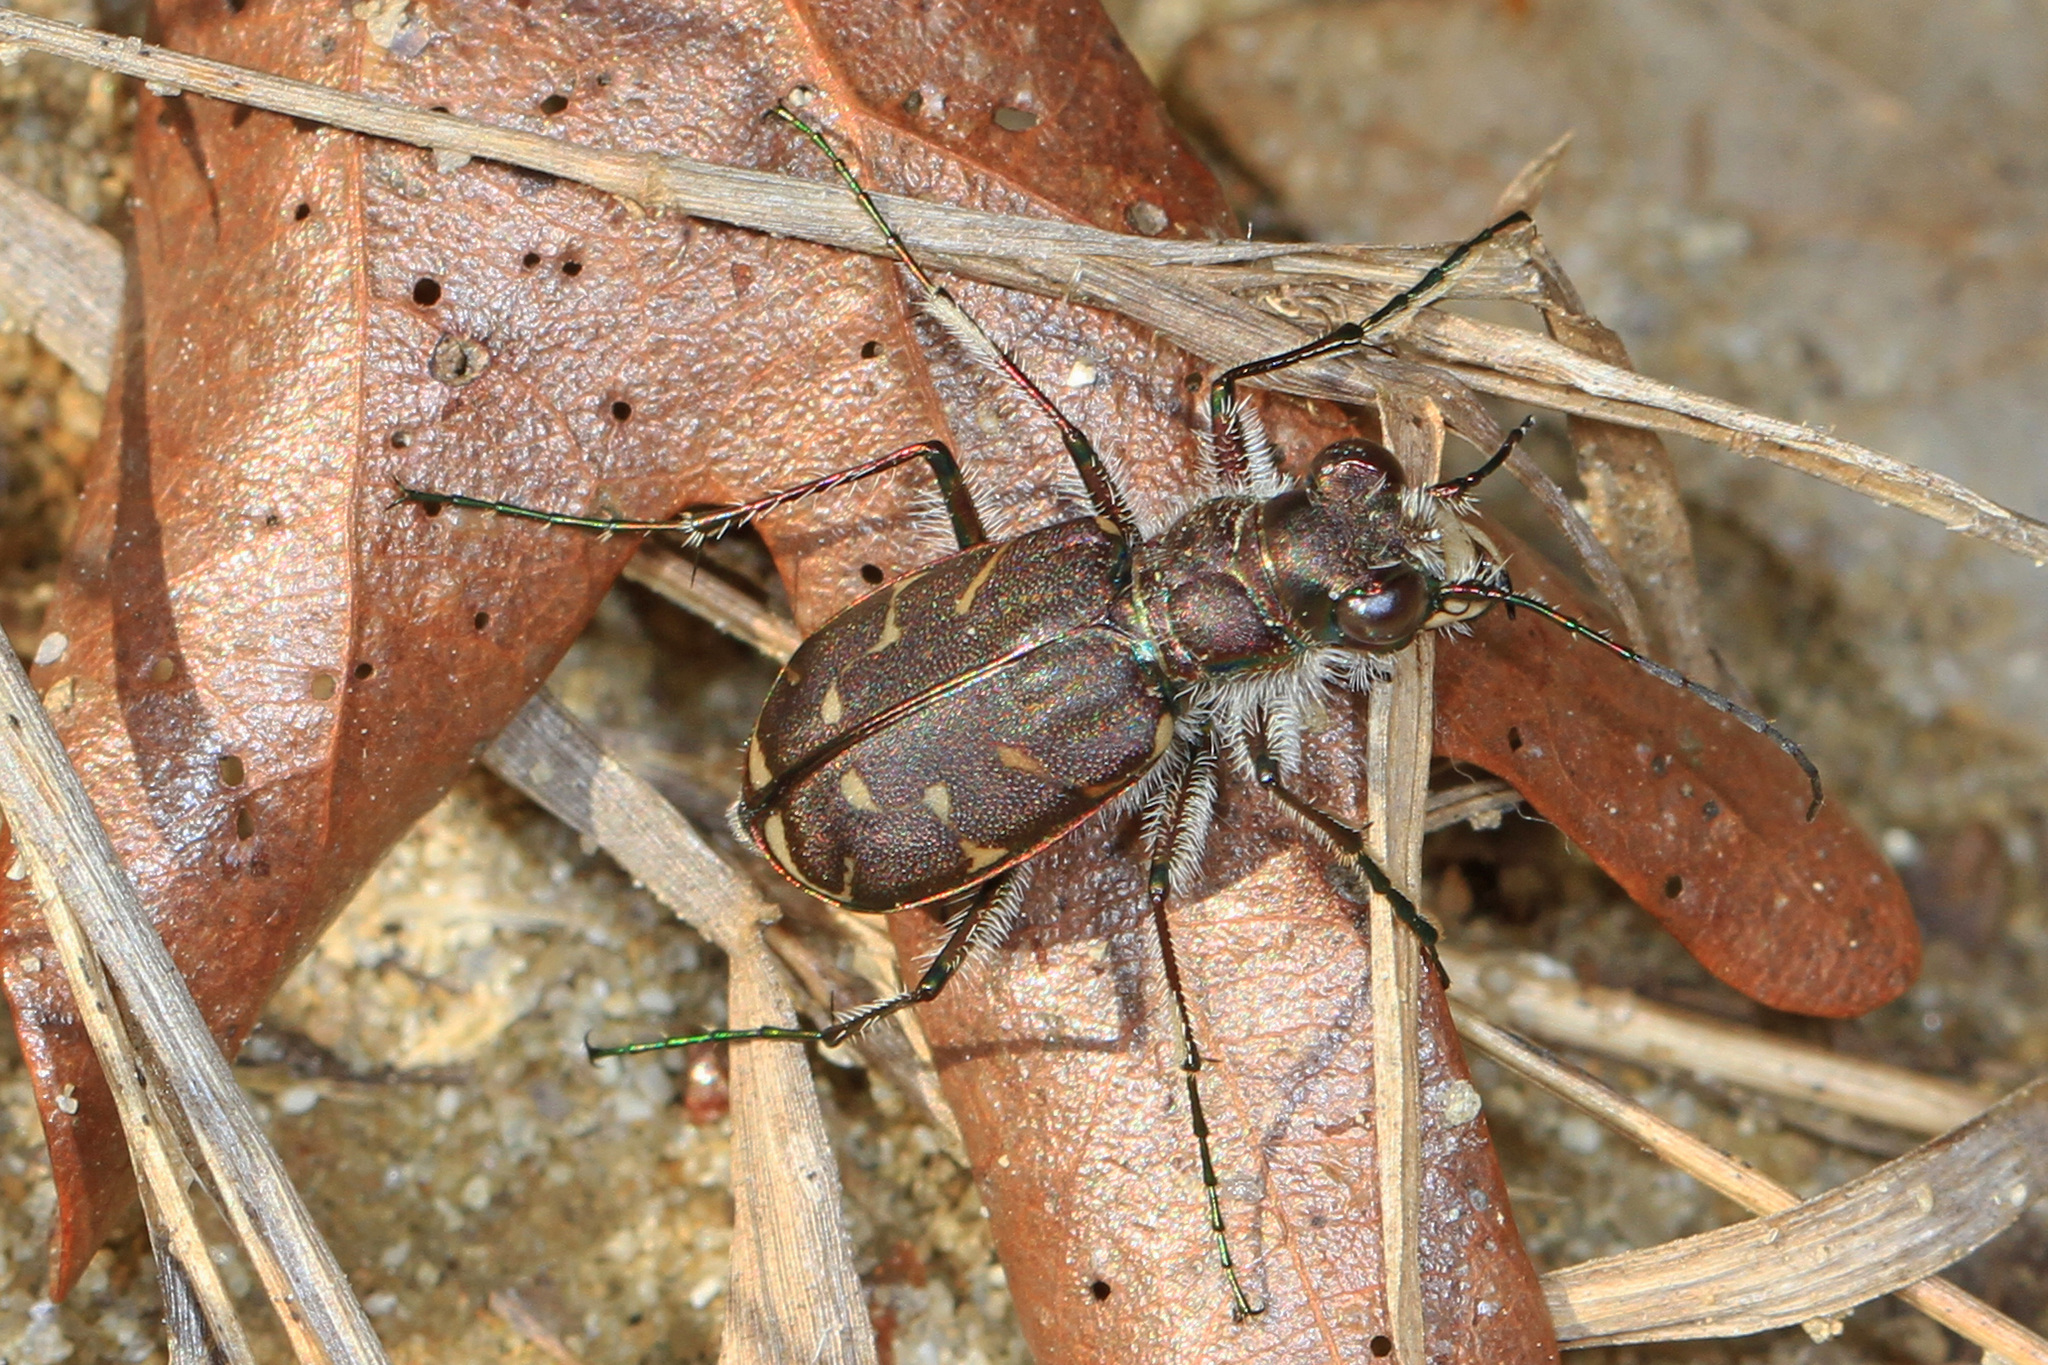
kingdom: Animalia
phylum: Arthropoda
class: Insecta
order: Coleoptera
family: Carabidae
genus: Cicindela
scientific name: Cicindela tranquebarica
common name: Oblique-lined tiger beetle
